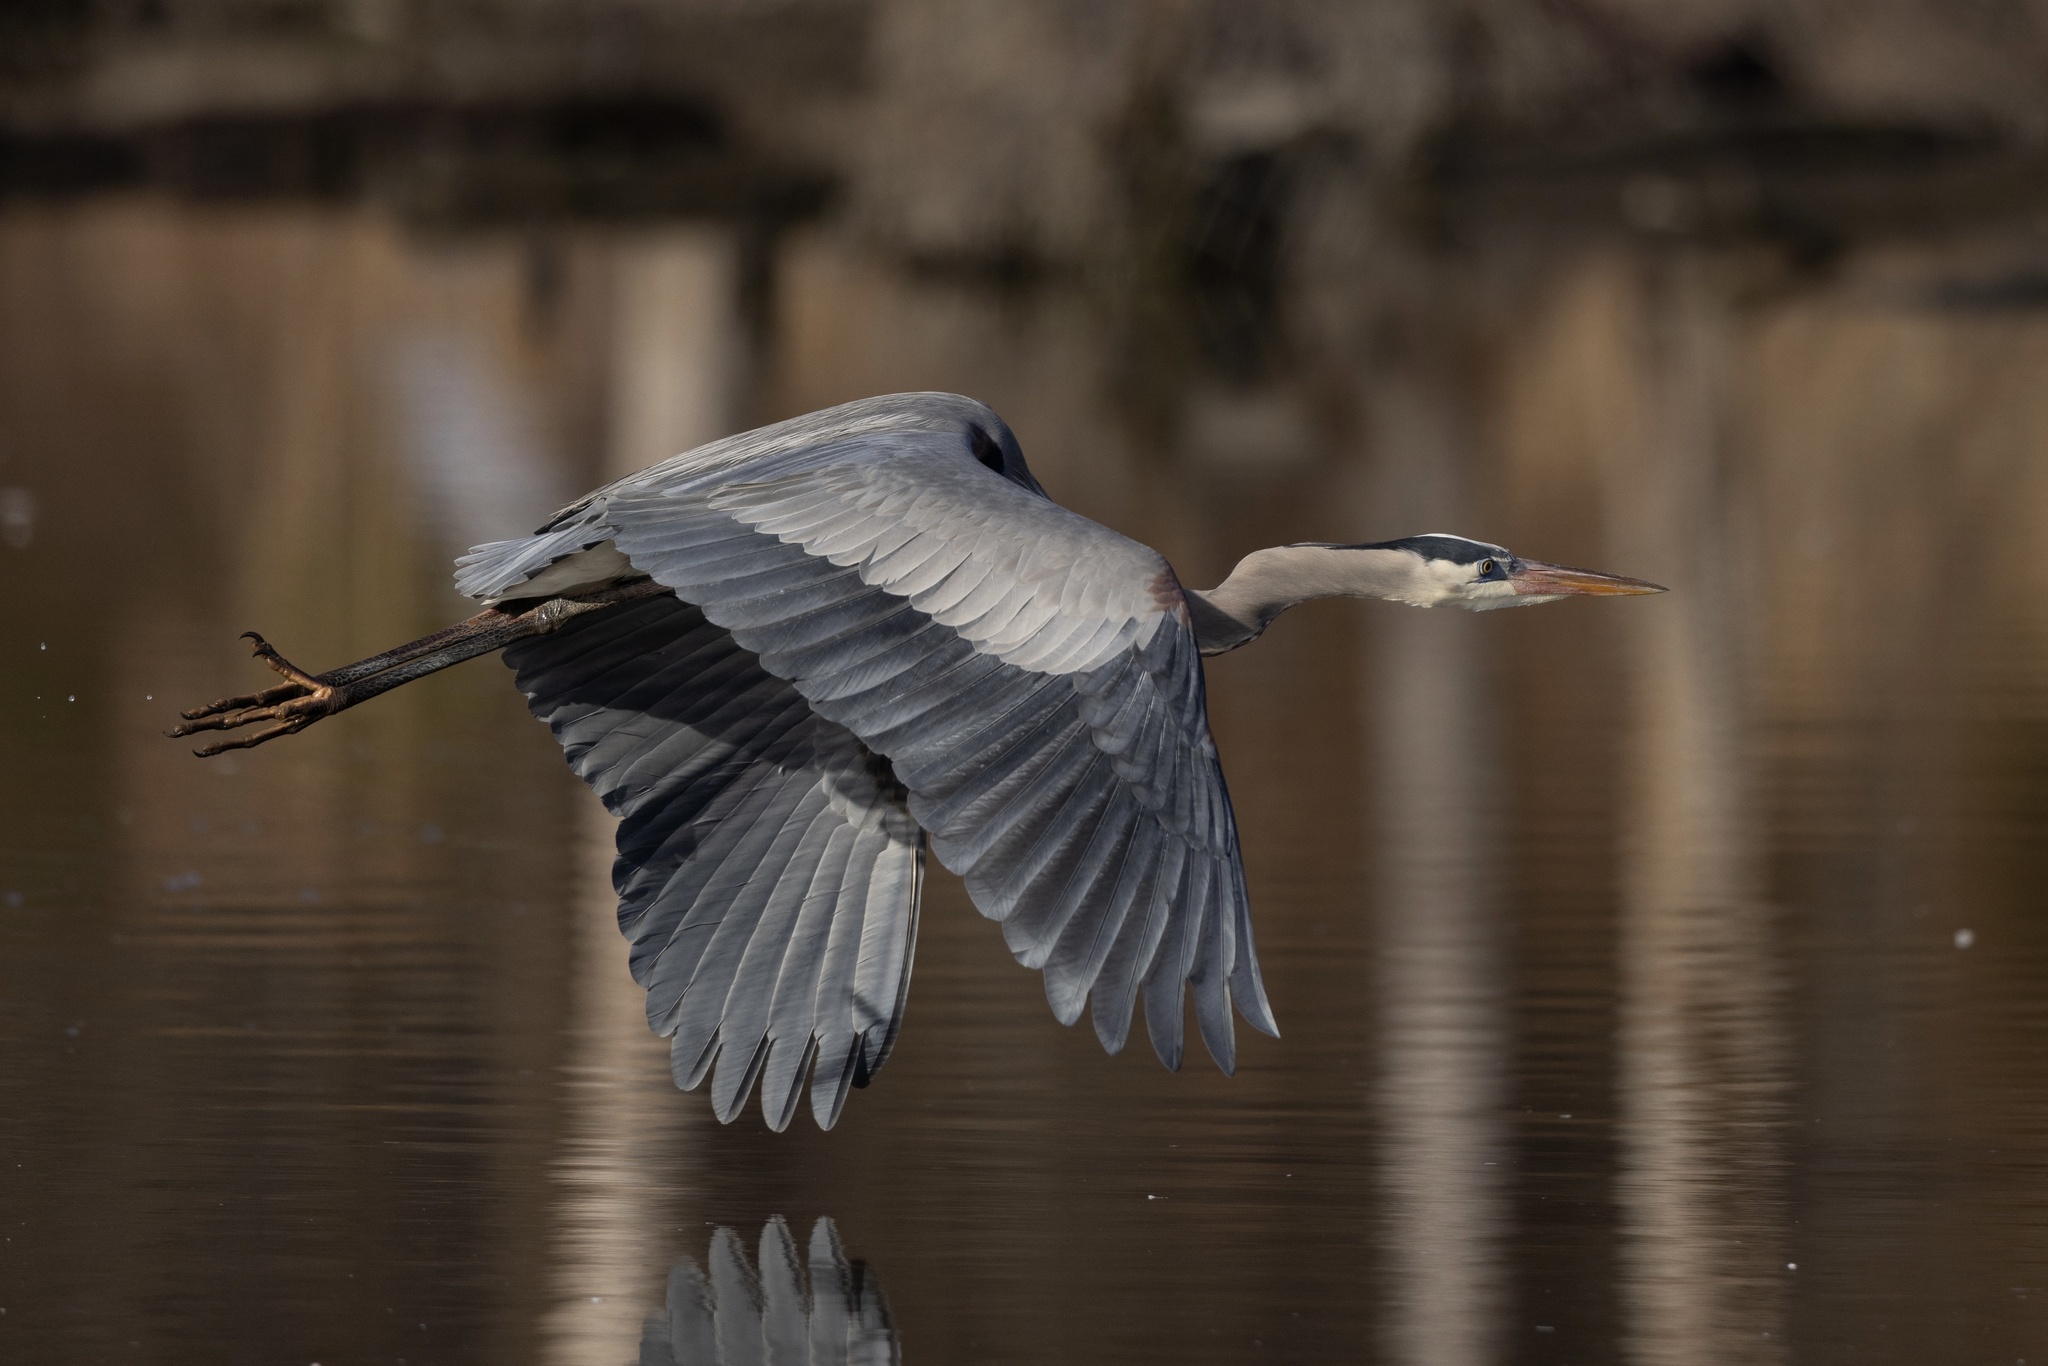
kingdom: Animalia
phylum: Chordata
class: Aves
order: Pelecaniformes
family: Ardeidae
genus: Ardea
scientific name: Ardea herodias
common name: Great blue heron
